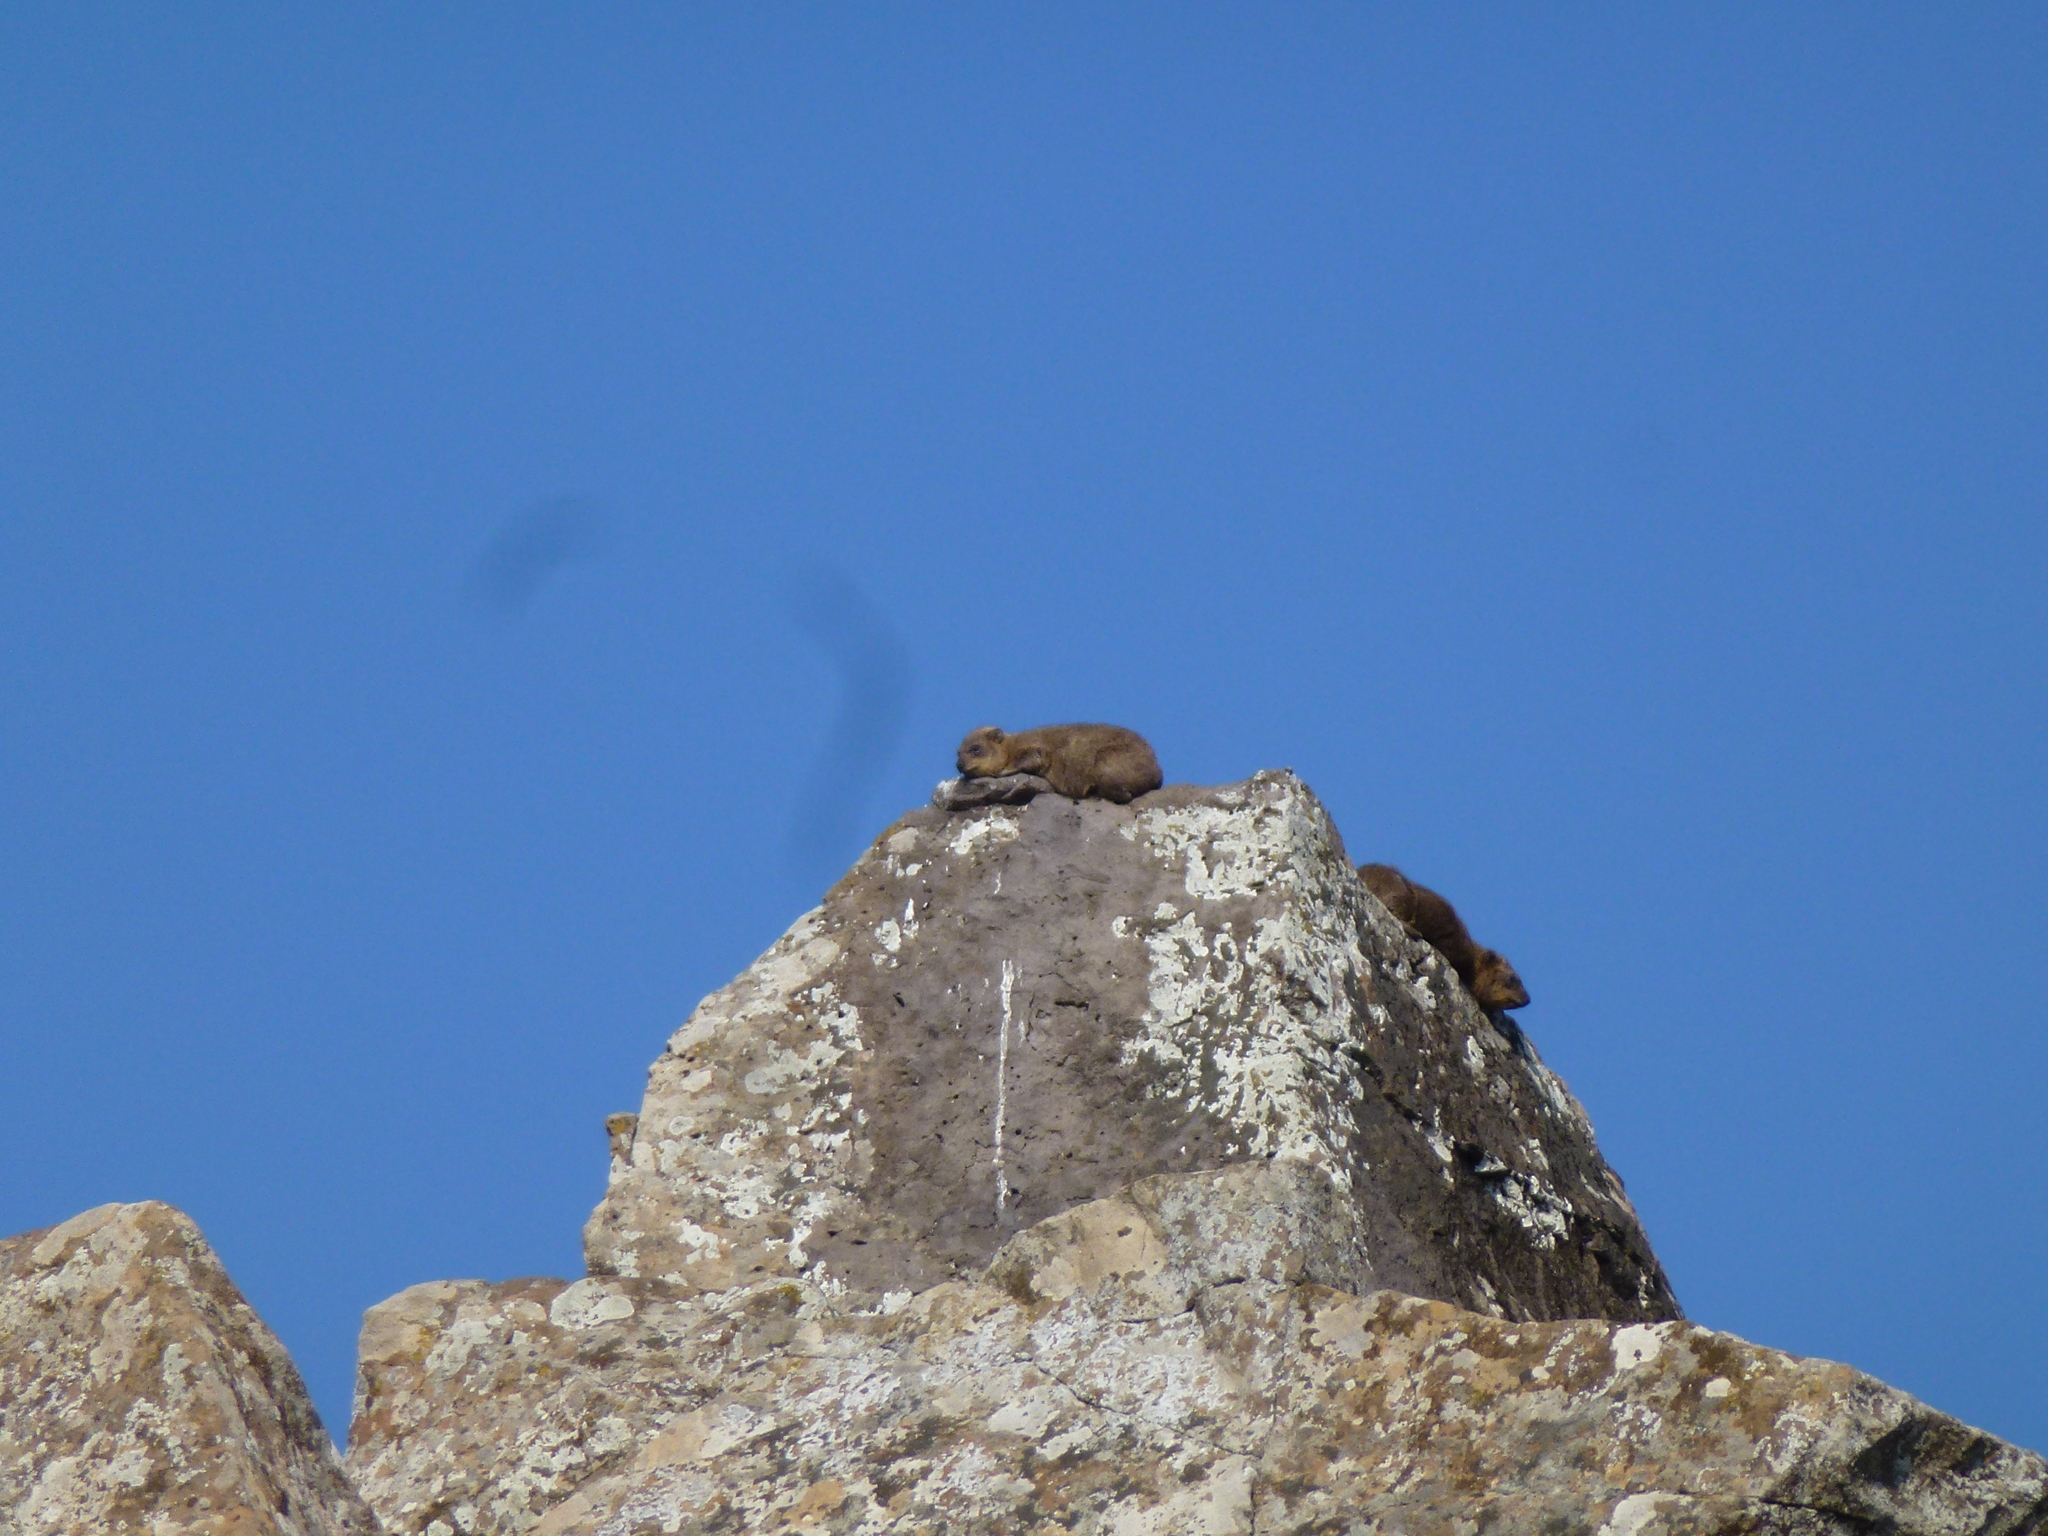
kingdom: Animalia
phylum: Chordata
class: Mammalia
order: Hyracoidea
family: Procaviidae
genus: Procavia
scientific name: Procavia capensis
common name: Rock hyrax
